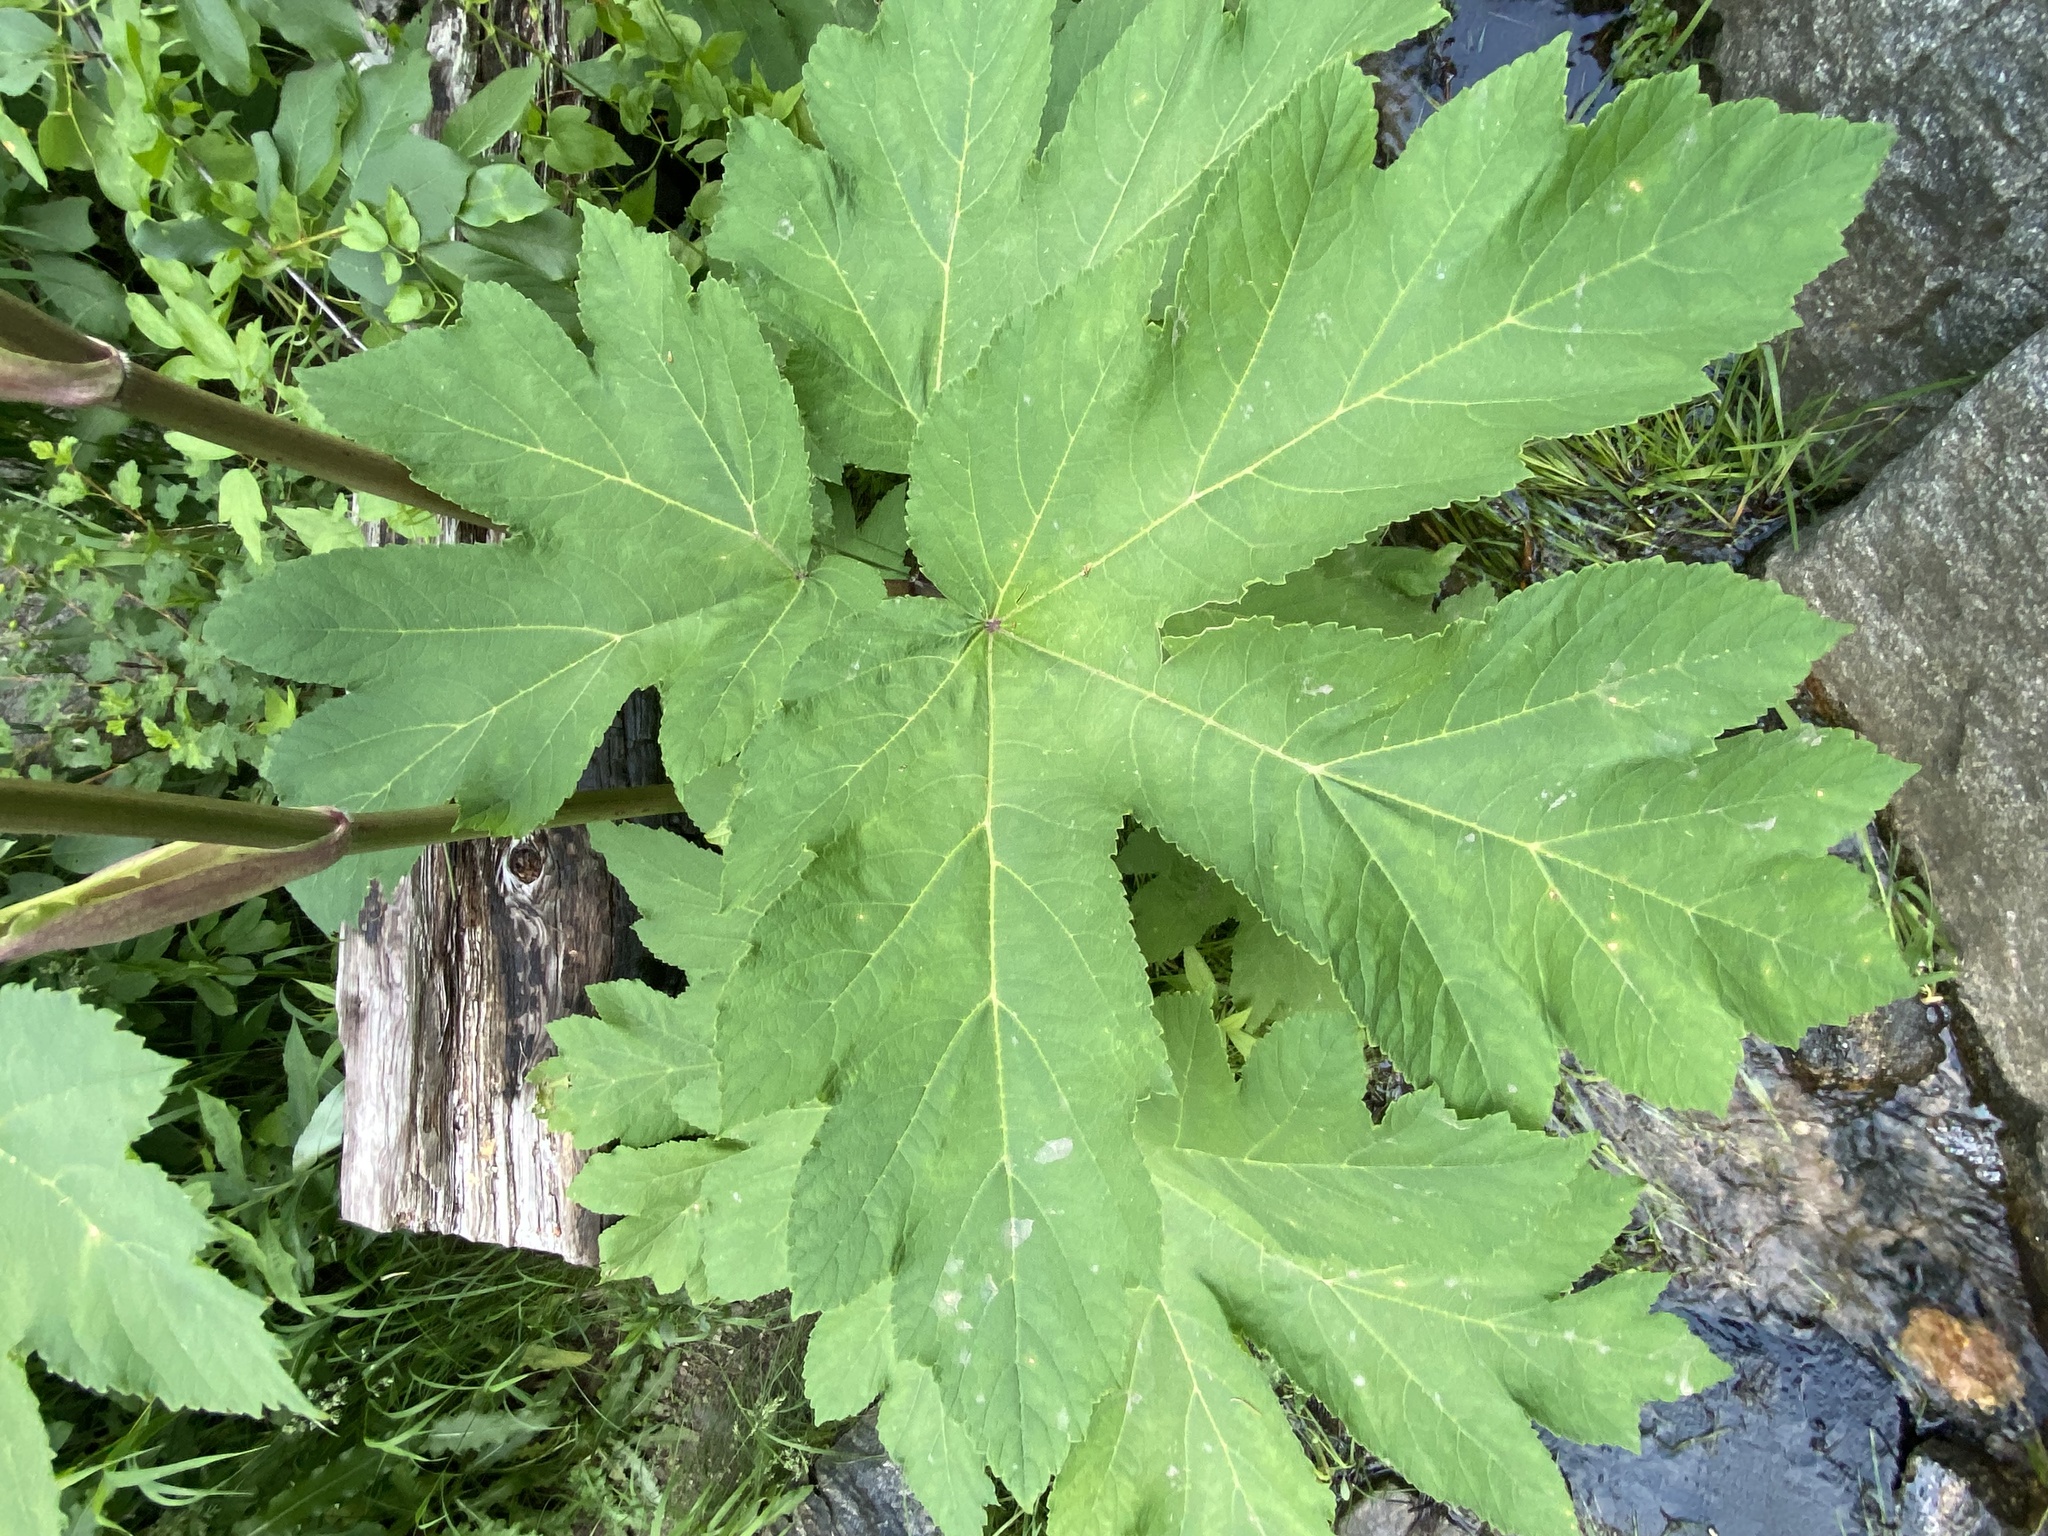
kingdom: Plantae
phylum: Tracheophyta
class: Magnoliopsida
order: Apiales
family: Apiaceae
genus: Heracleum
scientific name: Heracleum maximum
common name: American cow parsnip
